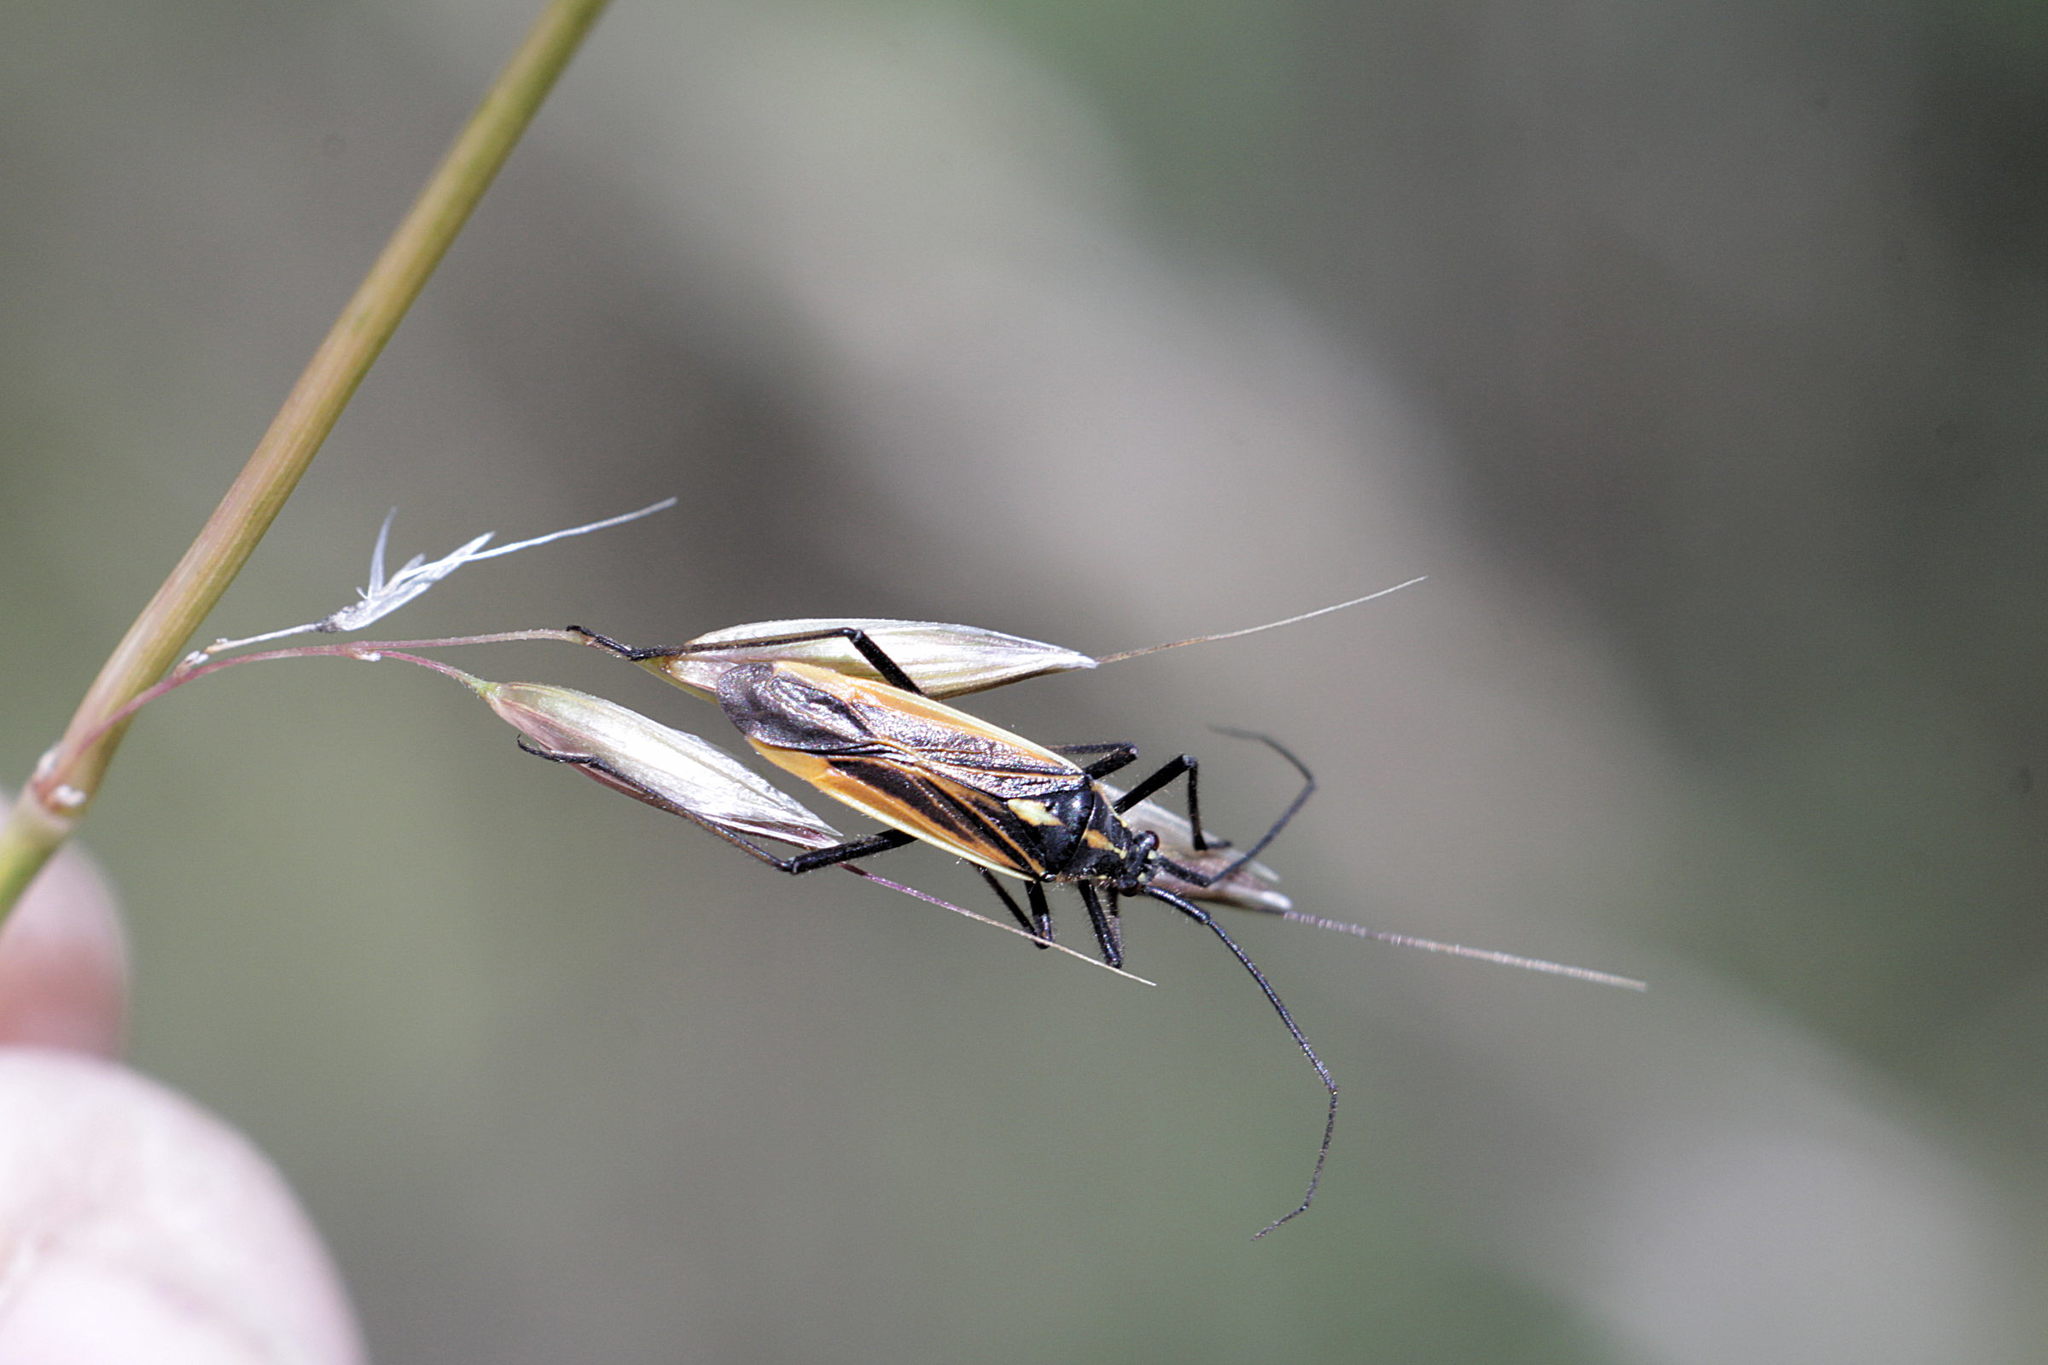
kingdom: Animalia
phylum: Arthropoda
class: Insecta
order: Hemiptera
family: Miridae
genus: Leptopterna
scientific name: Leptopterna dolabrata
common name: Meadow plant bug
